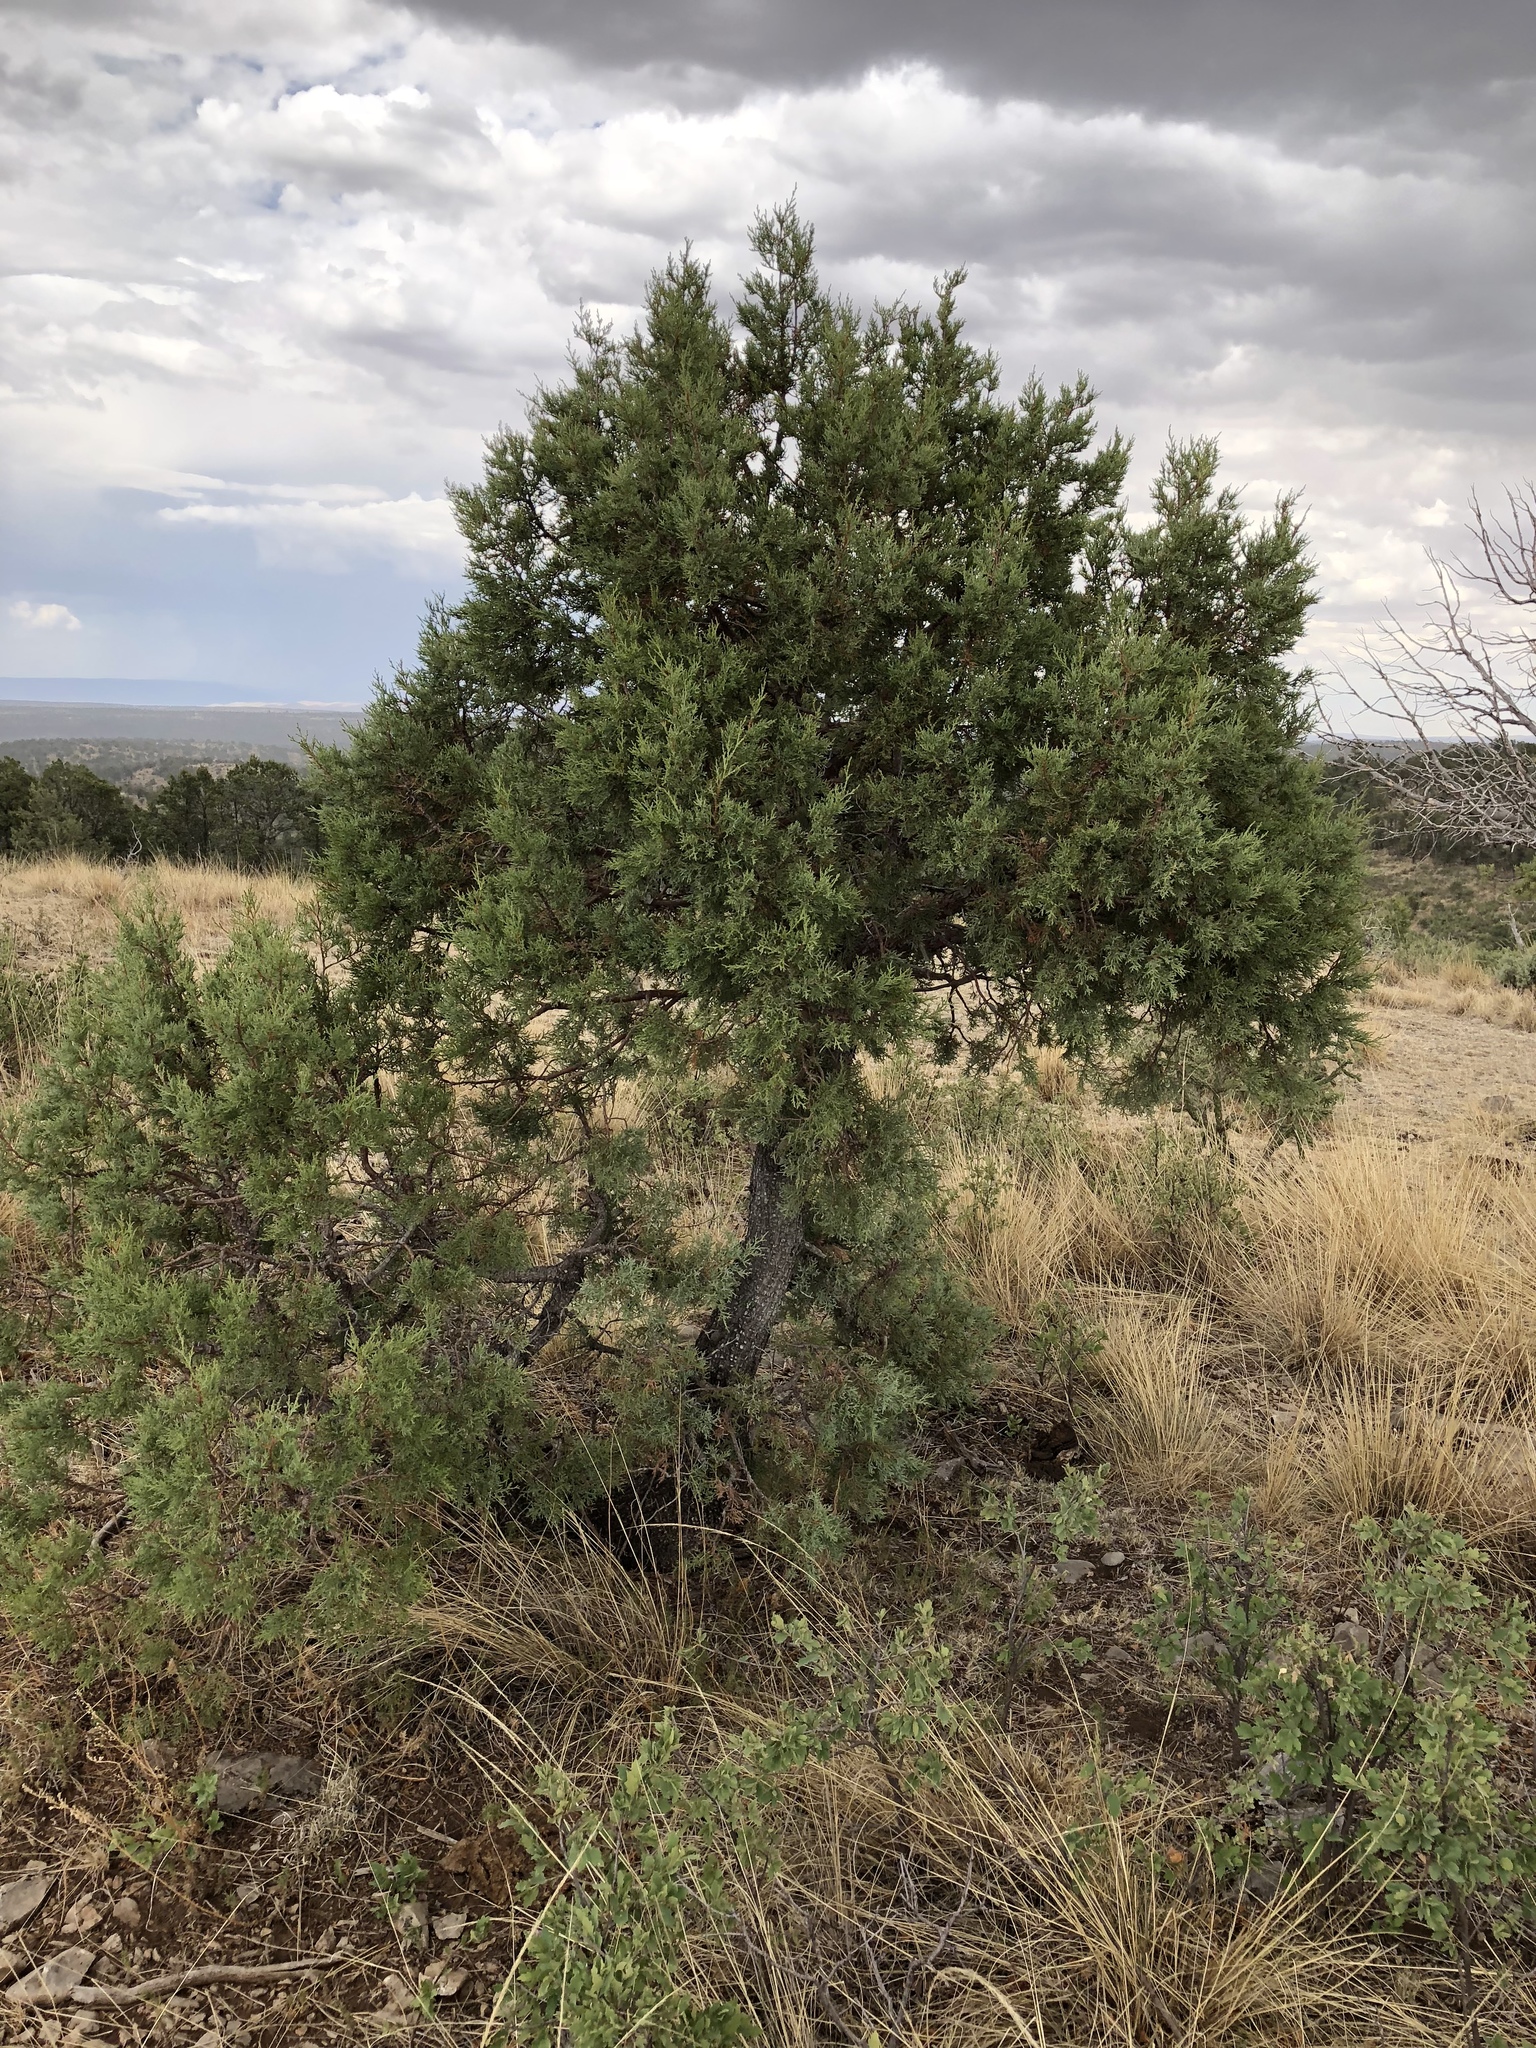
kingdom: Plantae
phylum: Tracheophyta
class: Pinopsida
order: Pinales
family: Cupressaceae
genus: Juniperus
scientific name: Juniperus deppeana
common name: Alligator juniper
